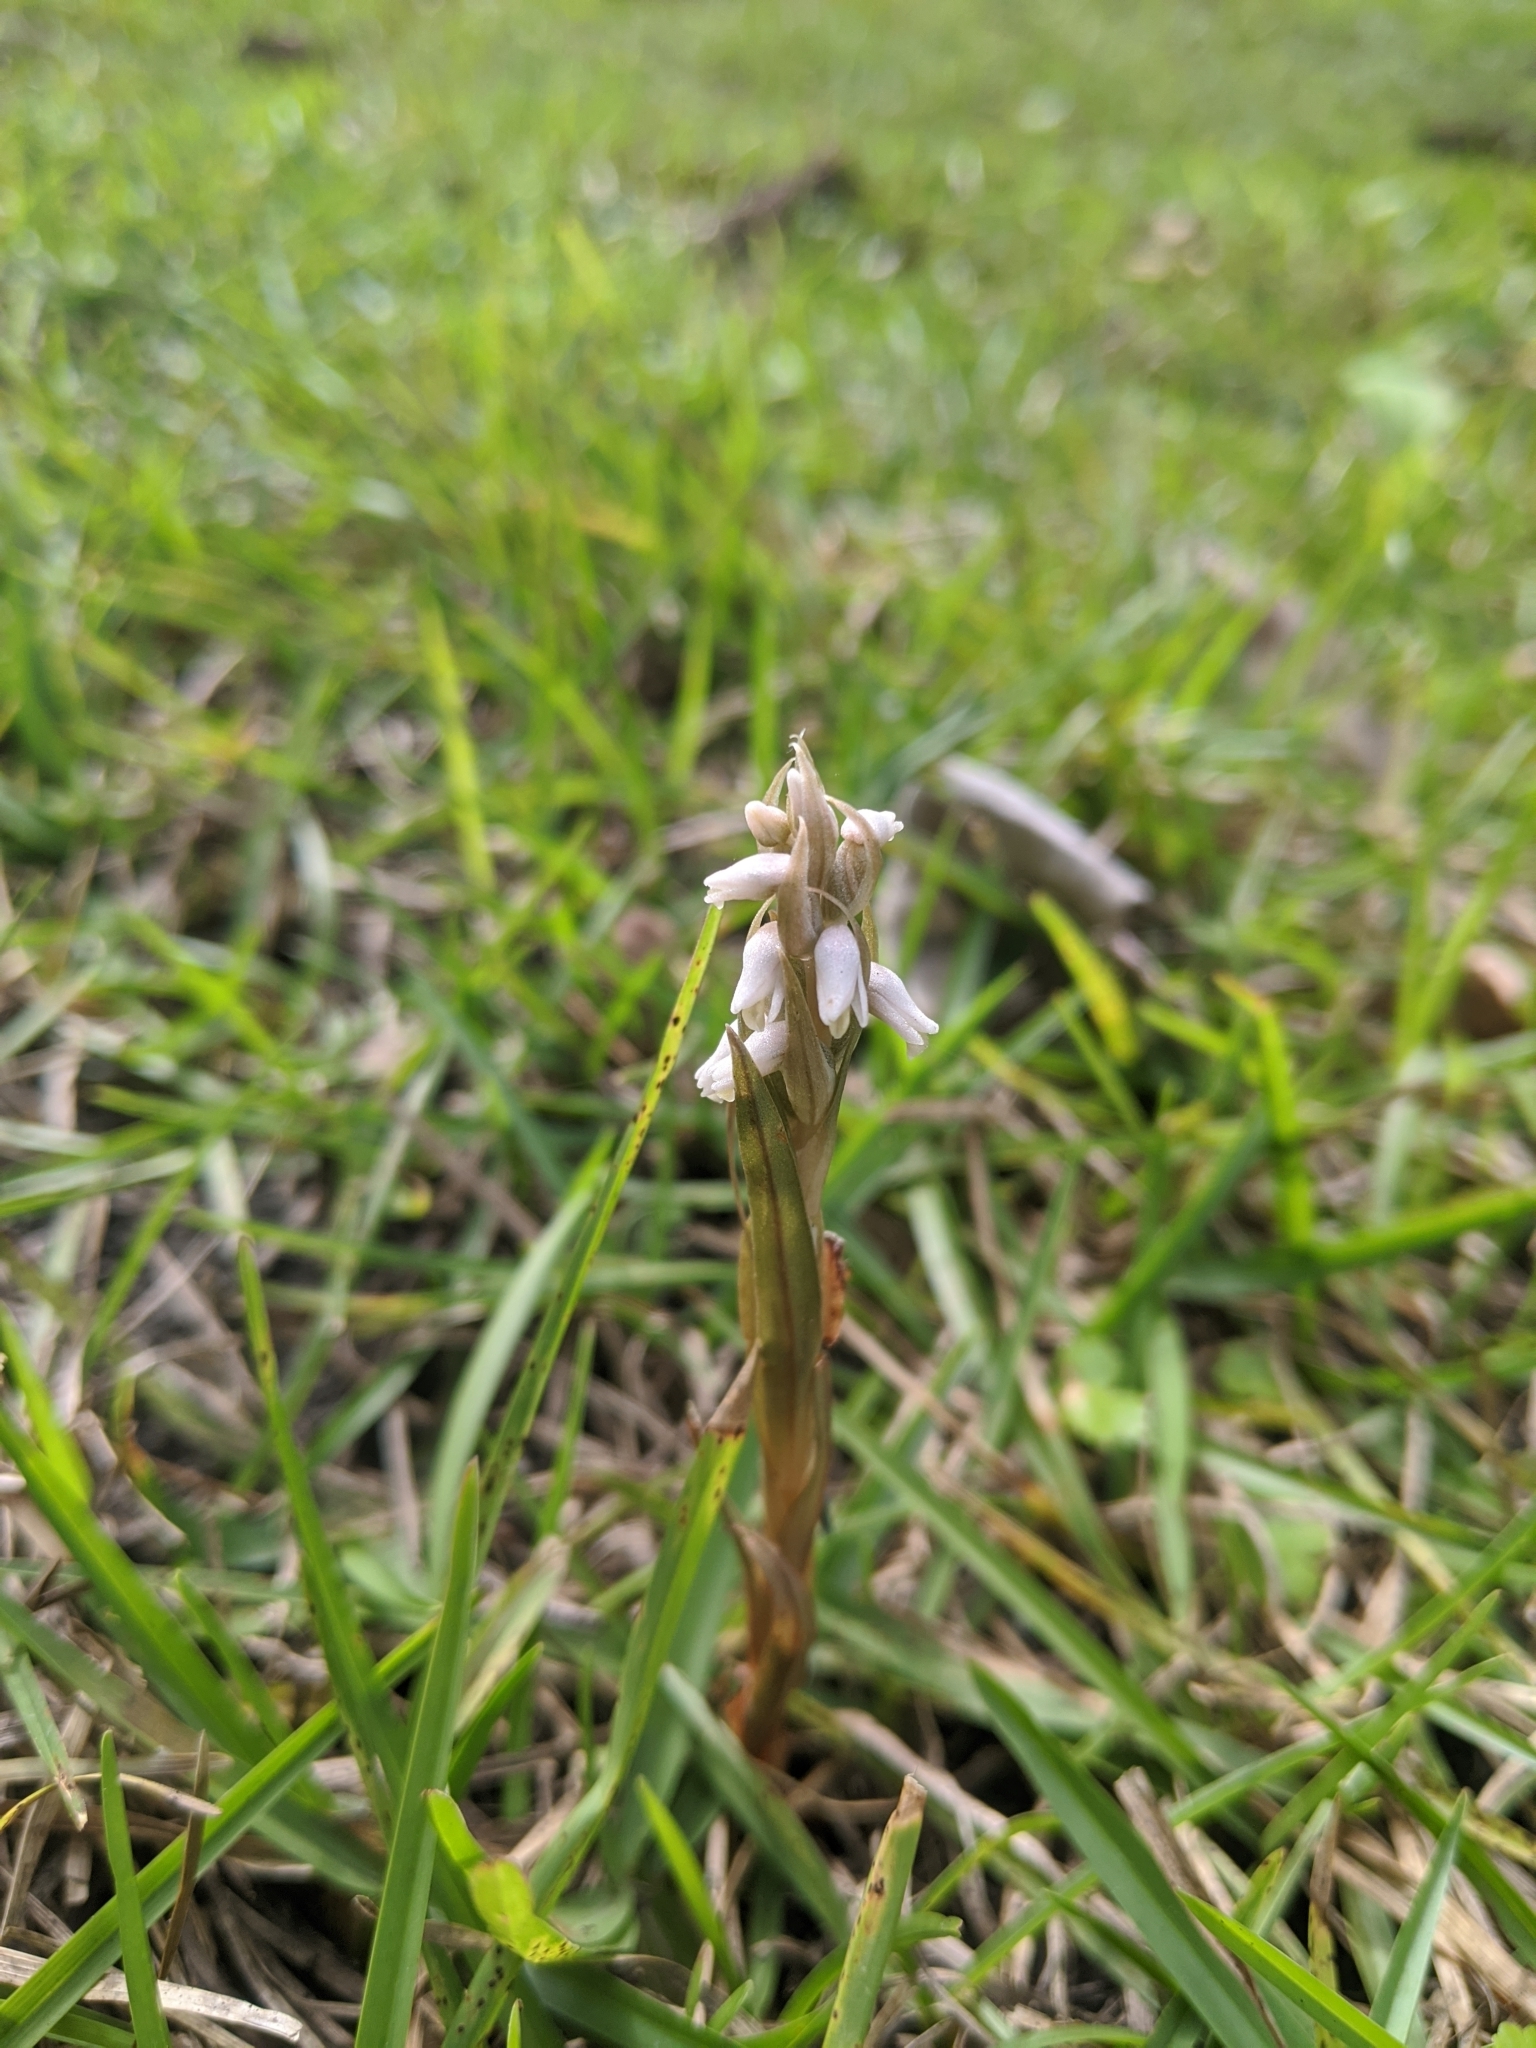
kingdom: Plantae
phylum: Tracheophyta
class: Liliopsida
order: Asparagales
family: Orchidaceae
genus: Zeuxine
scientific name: Zeuxine strateumatica
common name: Soldier's orchid
